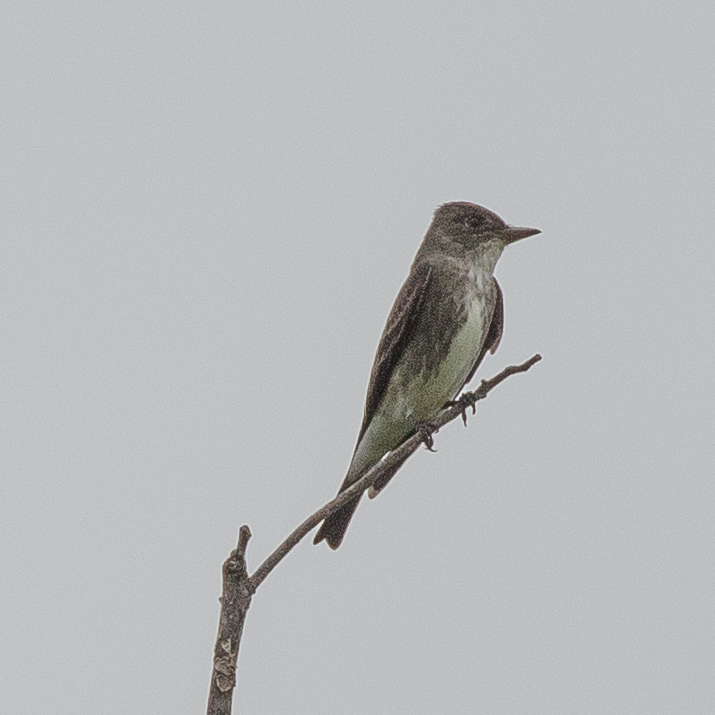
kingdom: Animalia
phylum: Chordata
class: Aves
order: Passeriformes
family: Tyrannidae
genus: Contopus
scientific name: Contopus cooperi
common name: Olive-sided flycatcher
